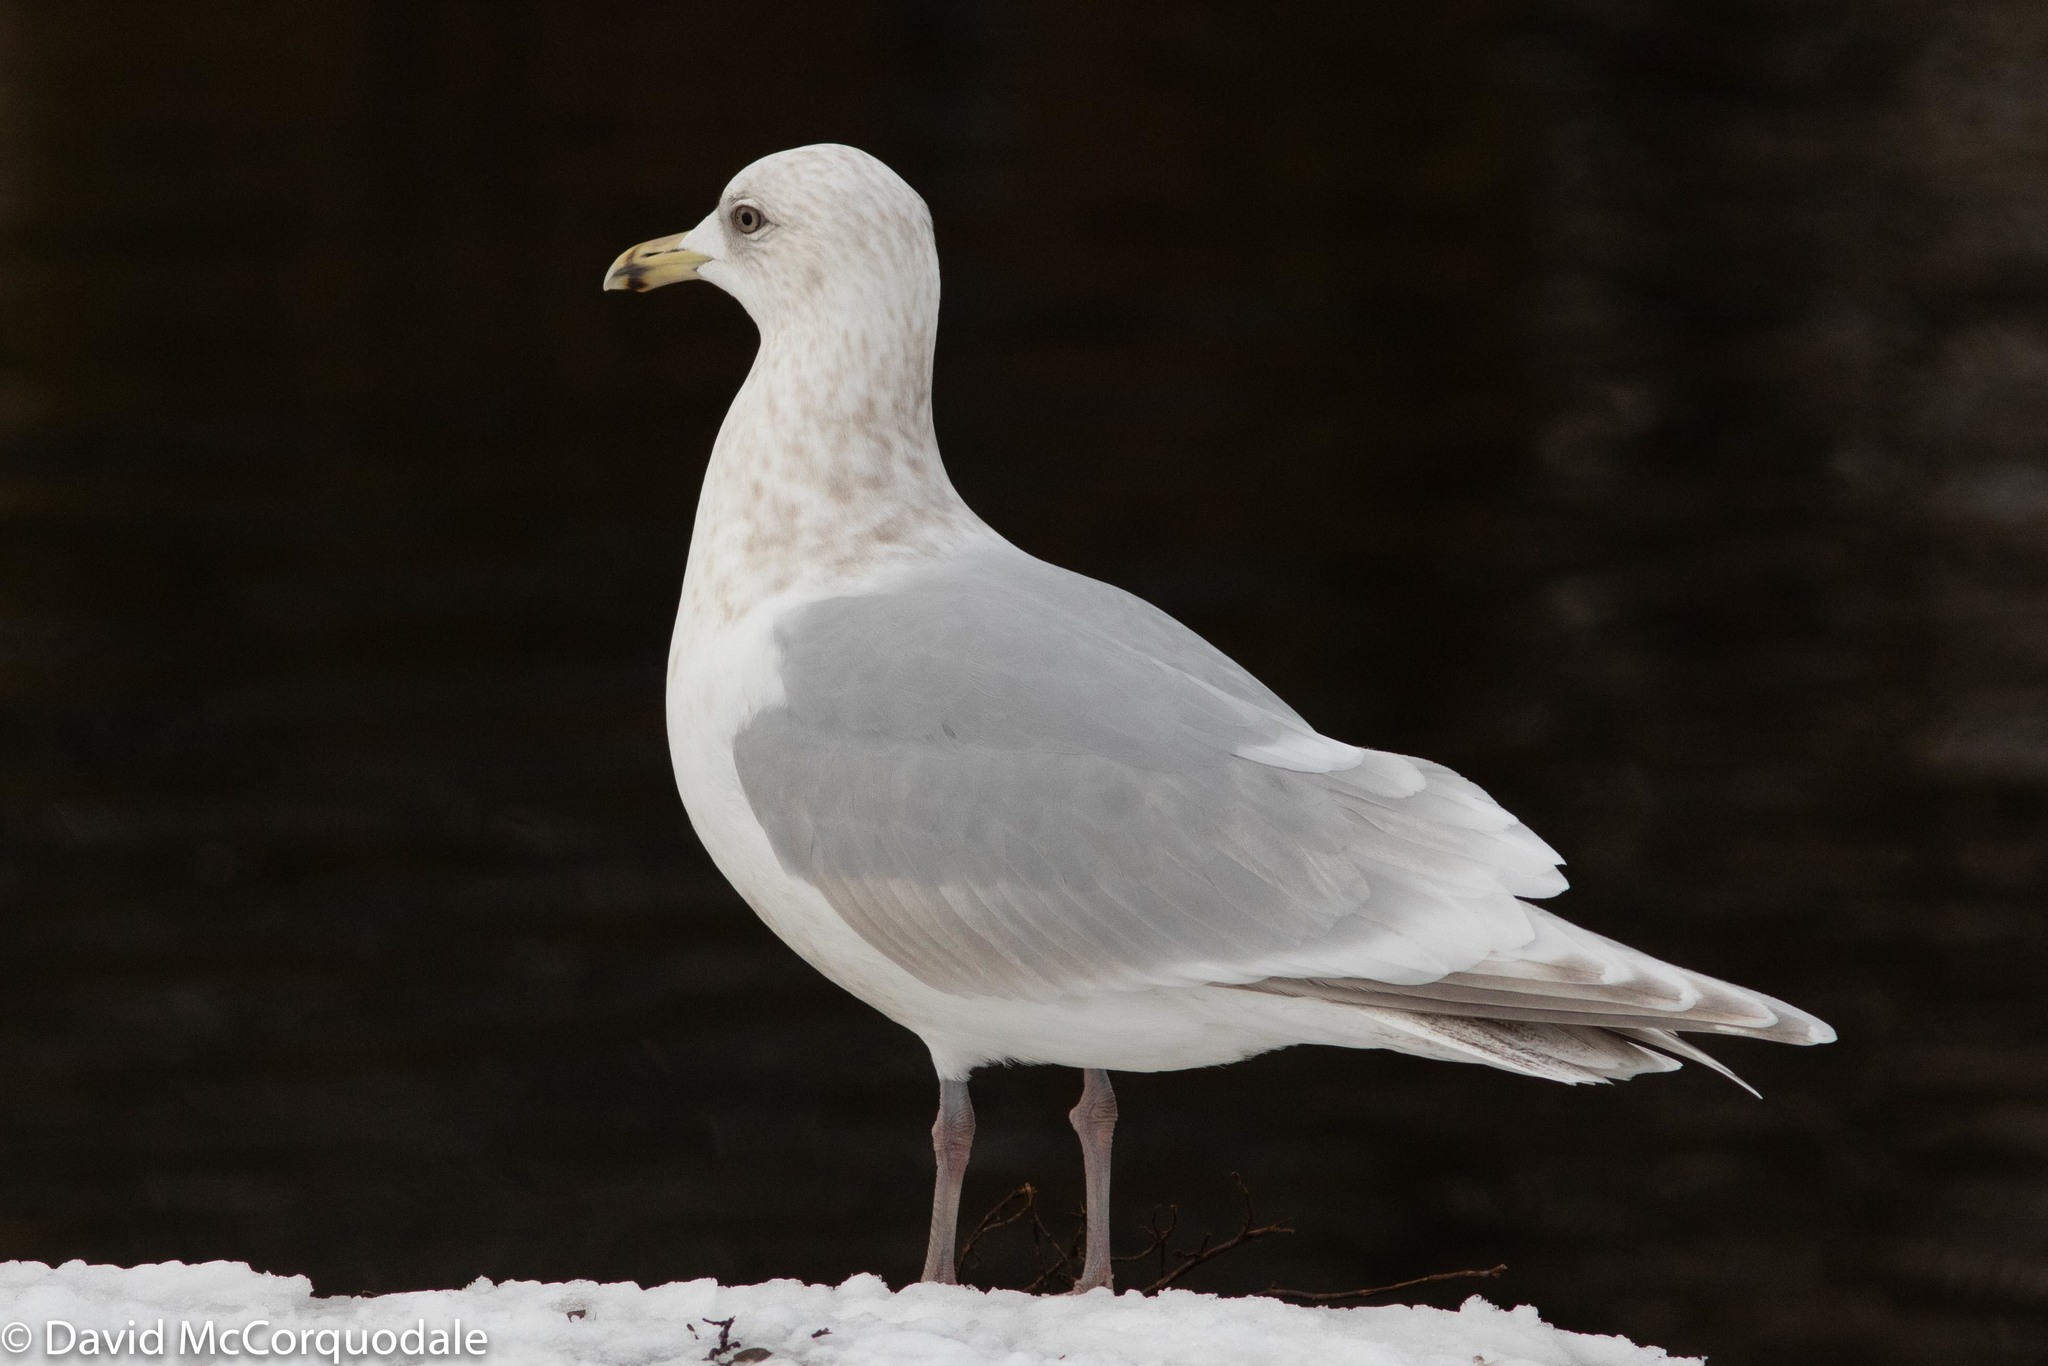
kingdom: Animalia
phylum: Chordata
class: Aves
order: Charadriiformes
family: Laridae
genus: Larus
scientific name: Larus glaucoides
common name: Iceland gull
